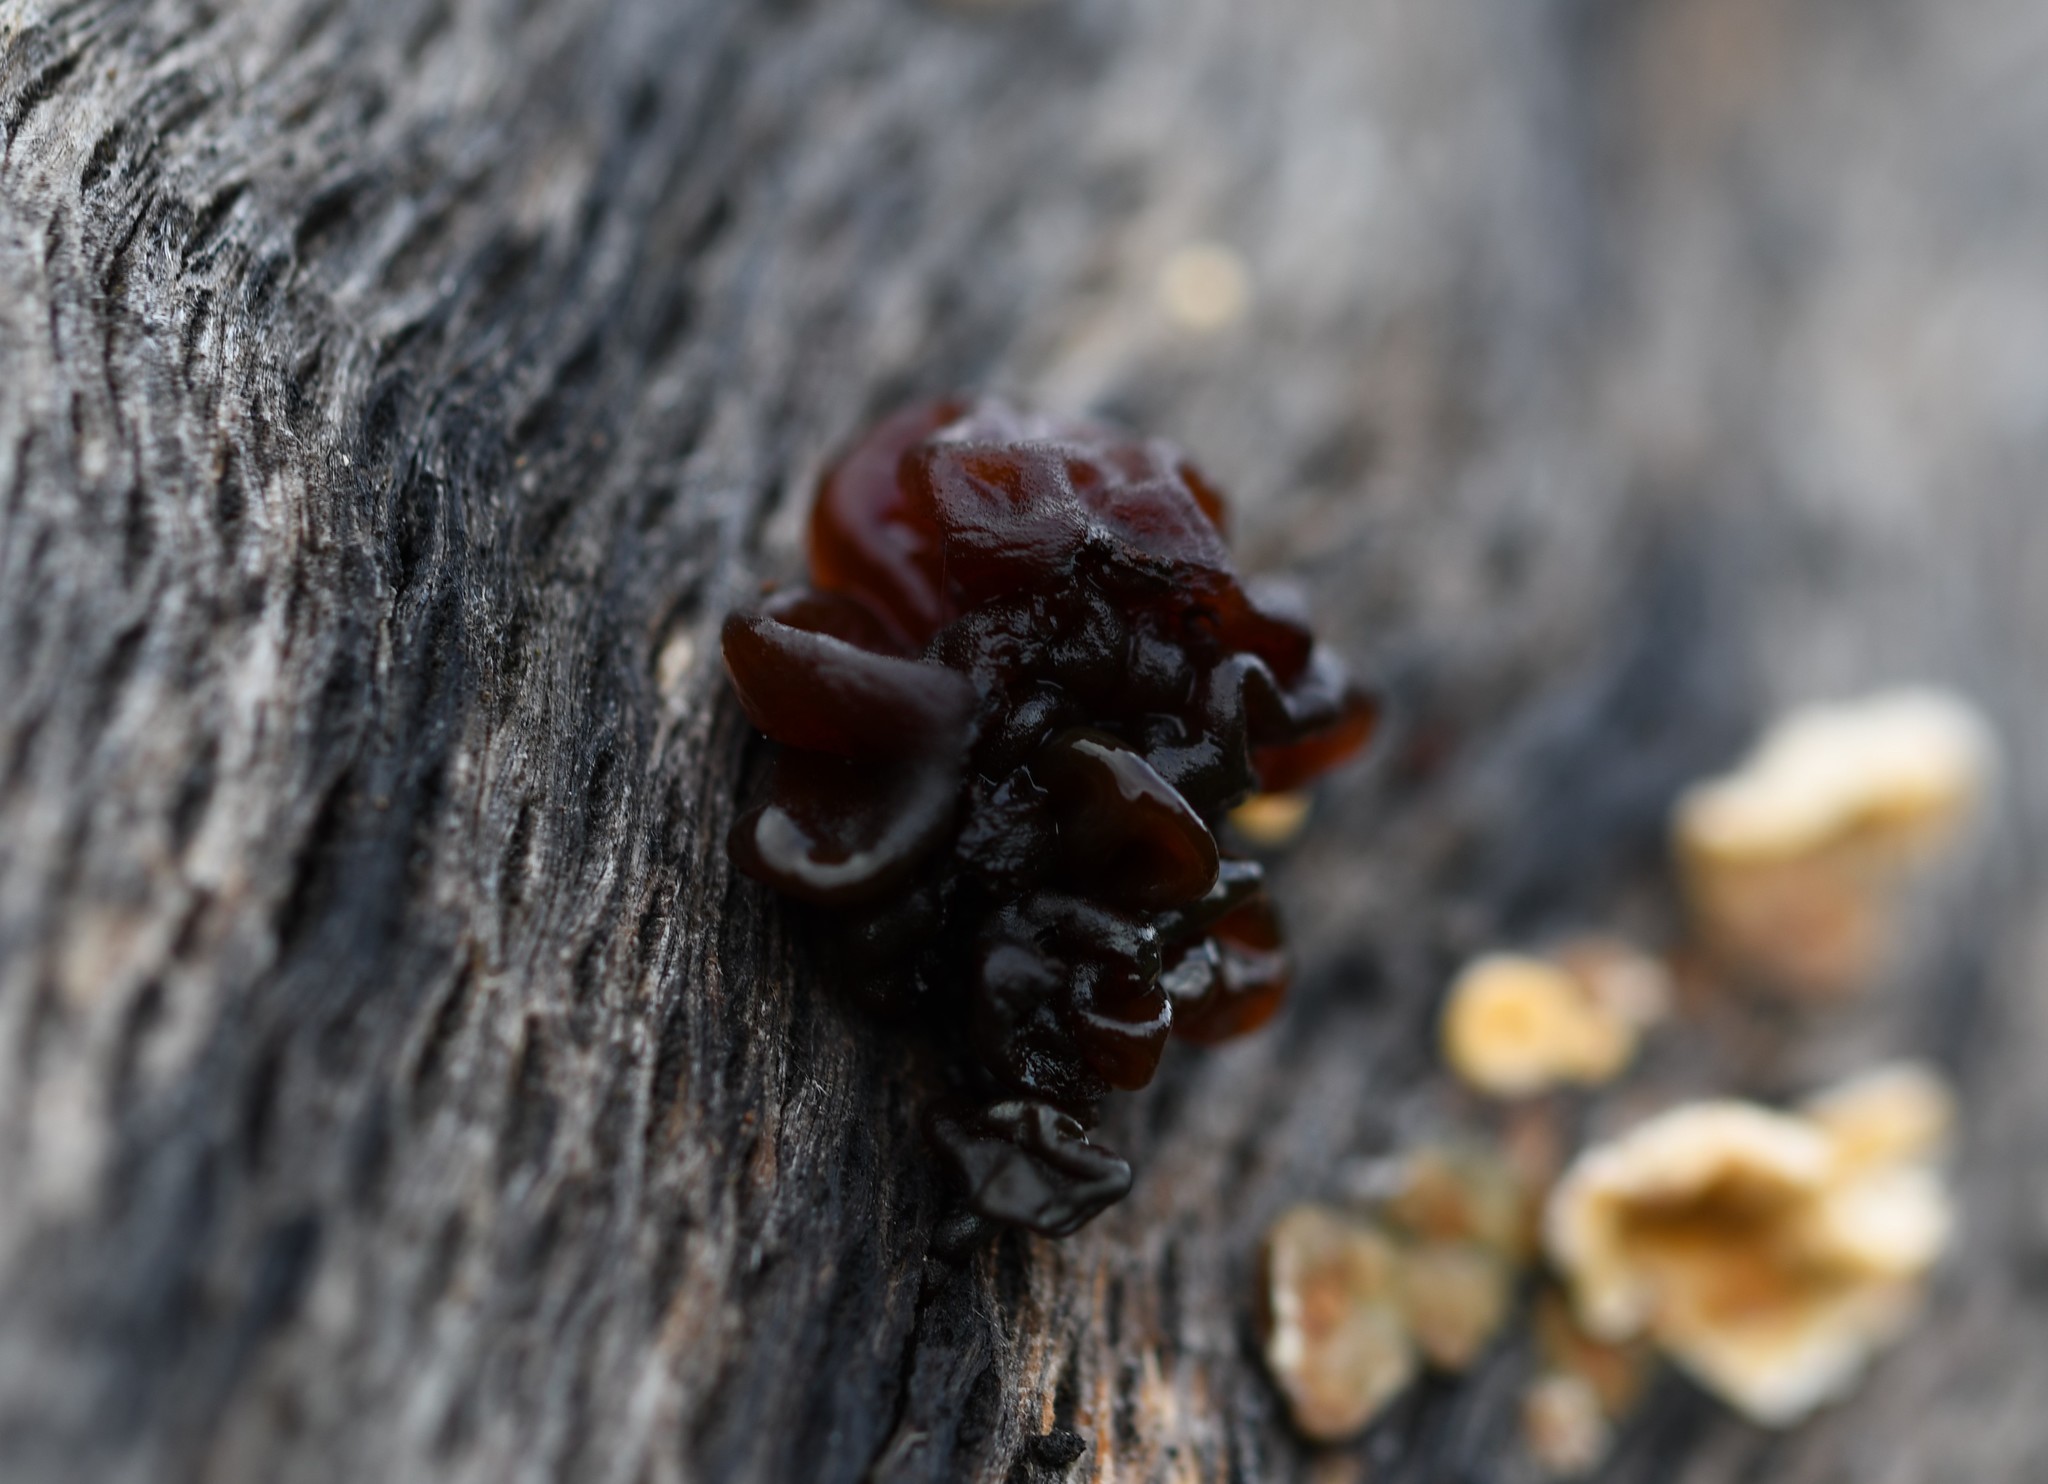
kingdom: Fungi
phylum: Basidiomycota
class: Tremellomycetes
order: Tremellales
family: Tremellaceae
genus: Phaeotremella
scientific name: Phaeotremella foliacea
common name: Leafy brain
